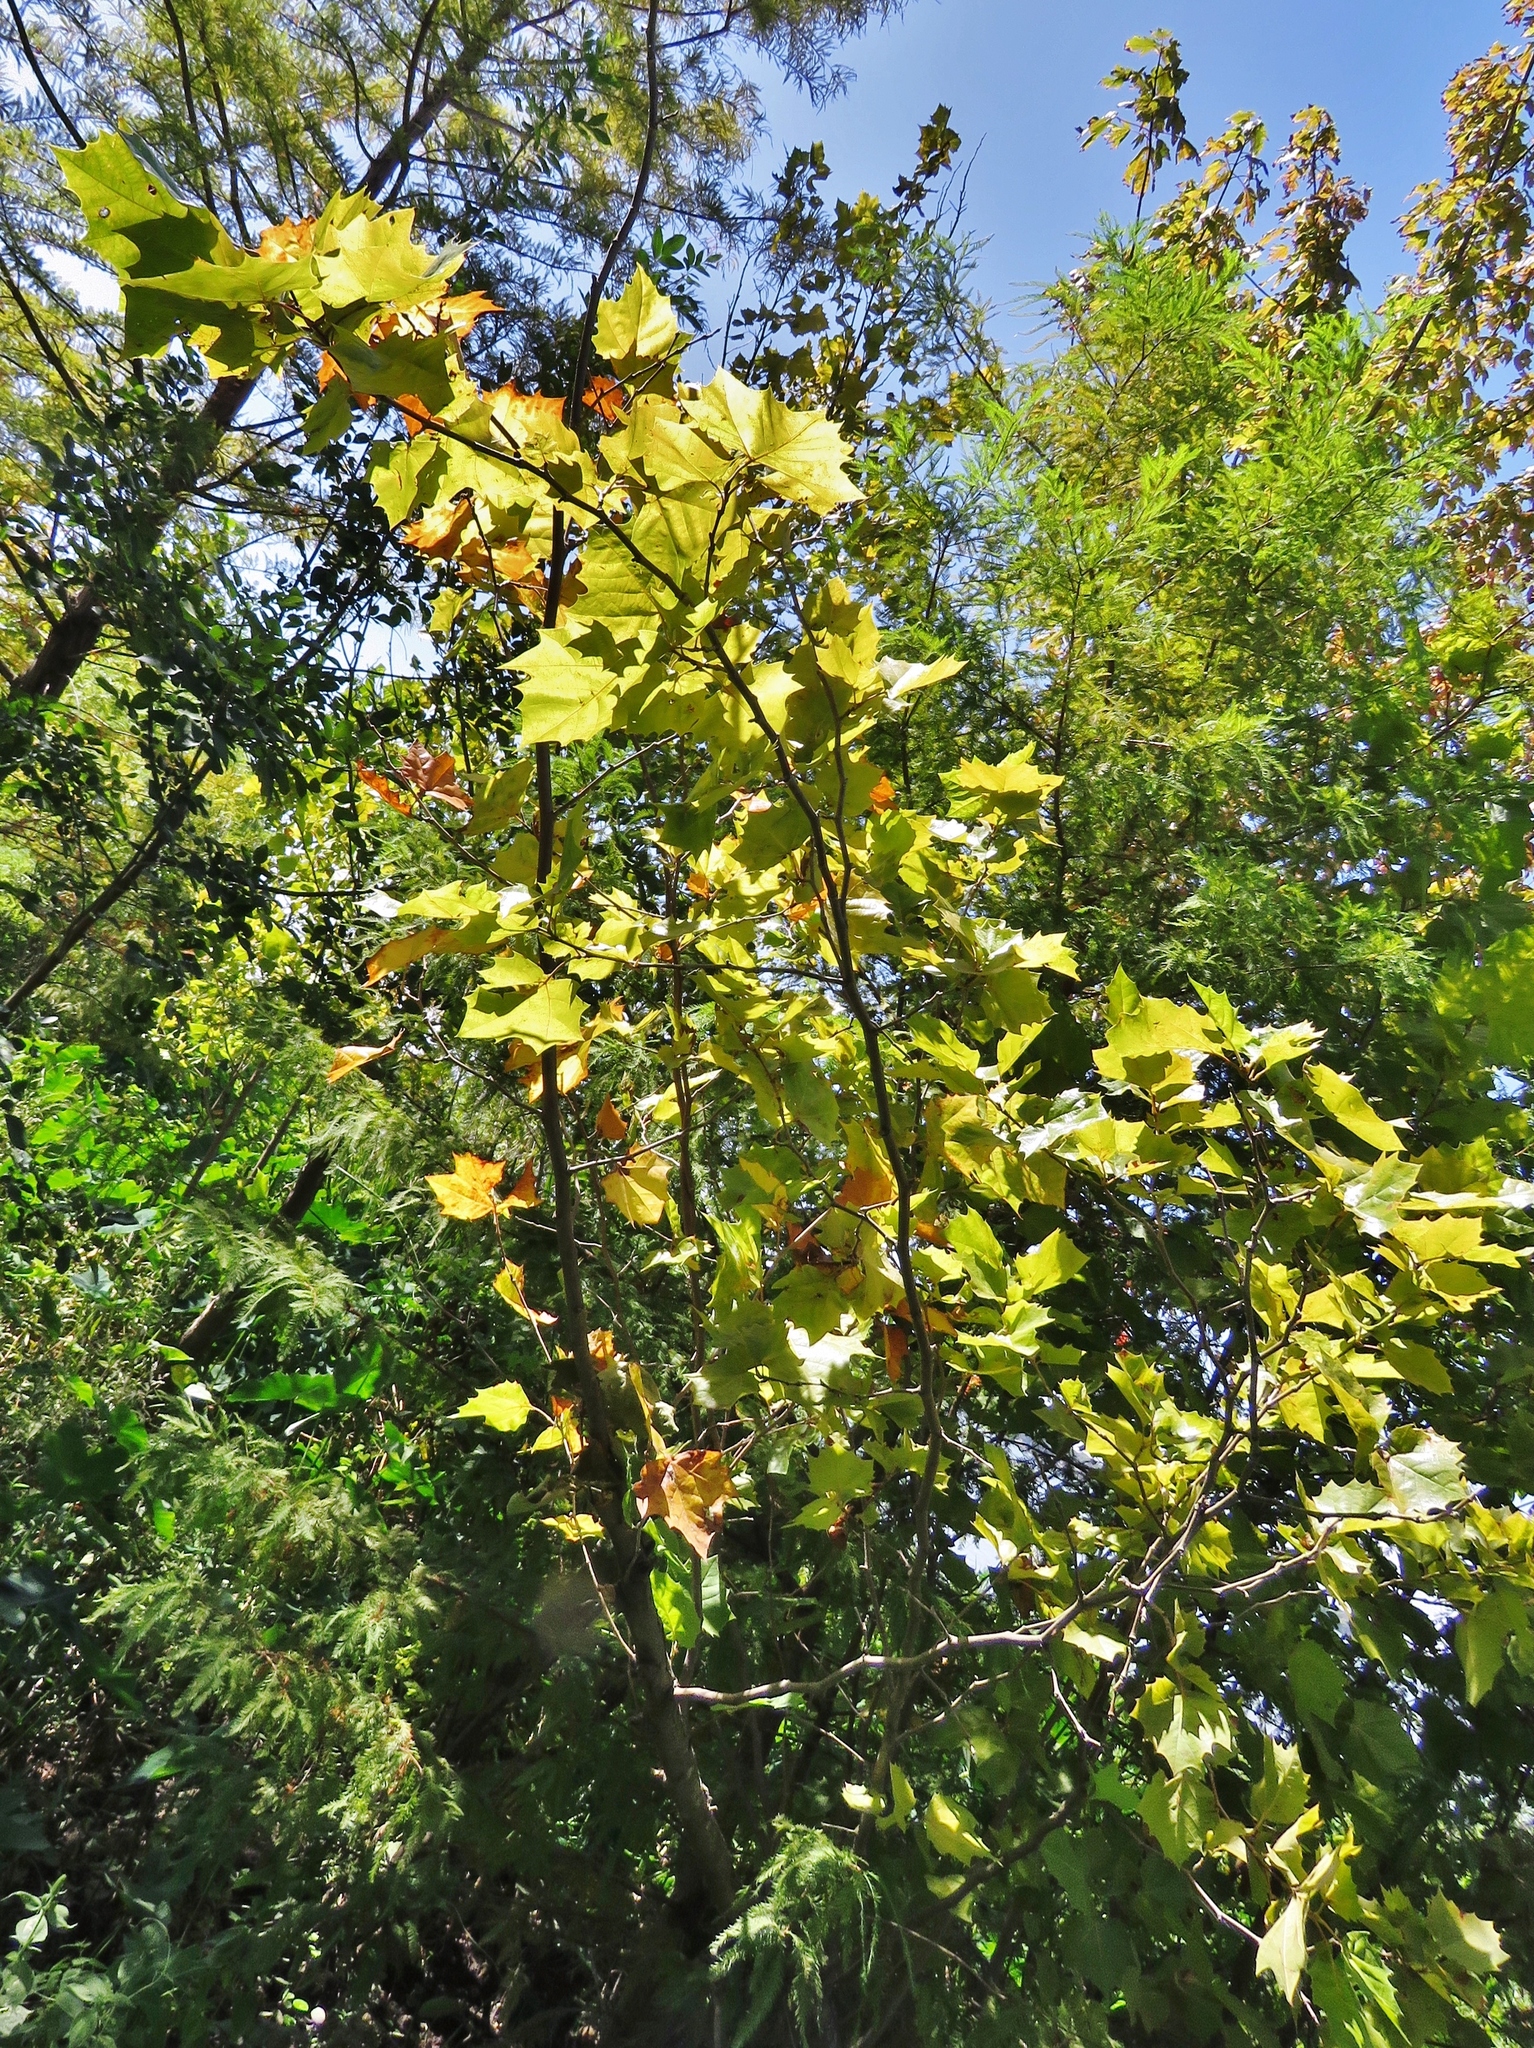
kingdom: Plantae
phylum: Tracheophyta
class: Magnoliopsida
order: Proteales
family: Platanaceae
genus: Platanus
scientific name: Platanus occidentalis
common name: American sycamore
